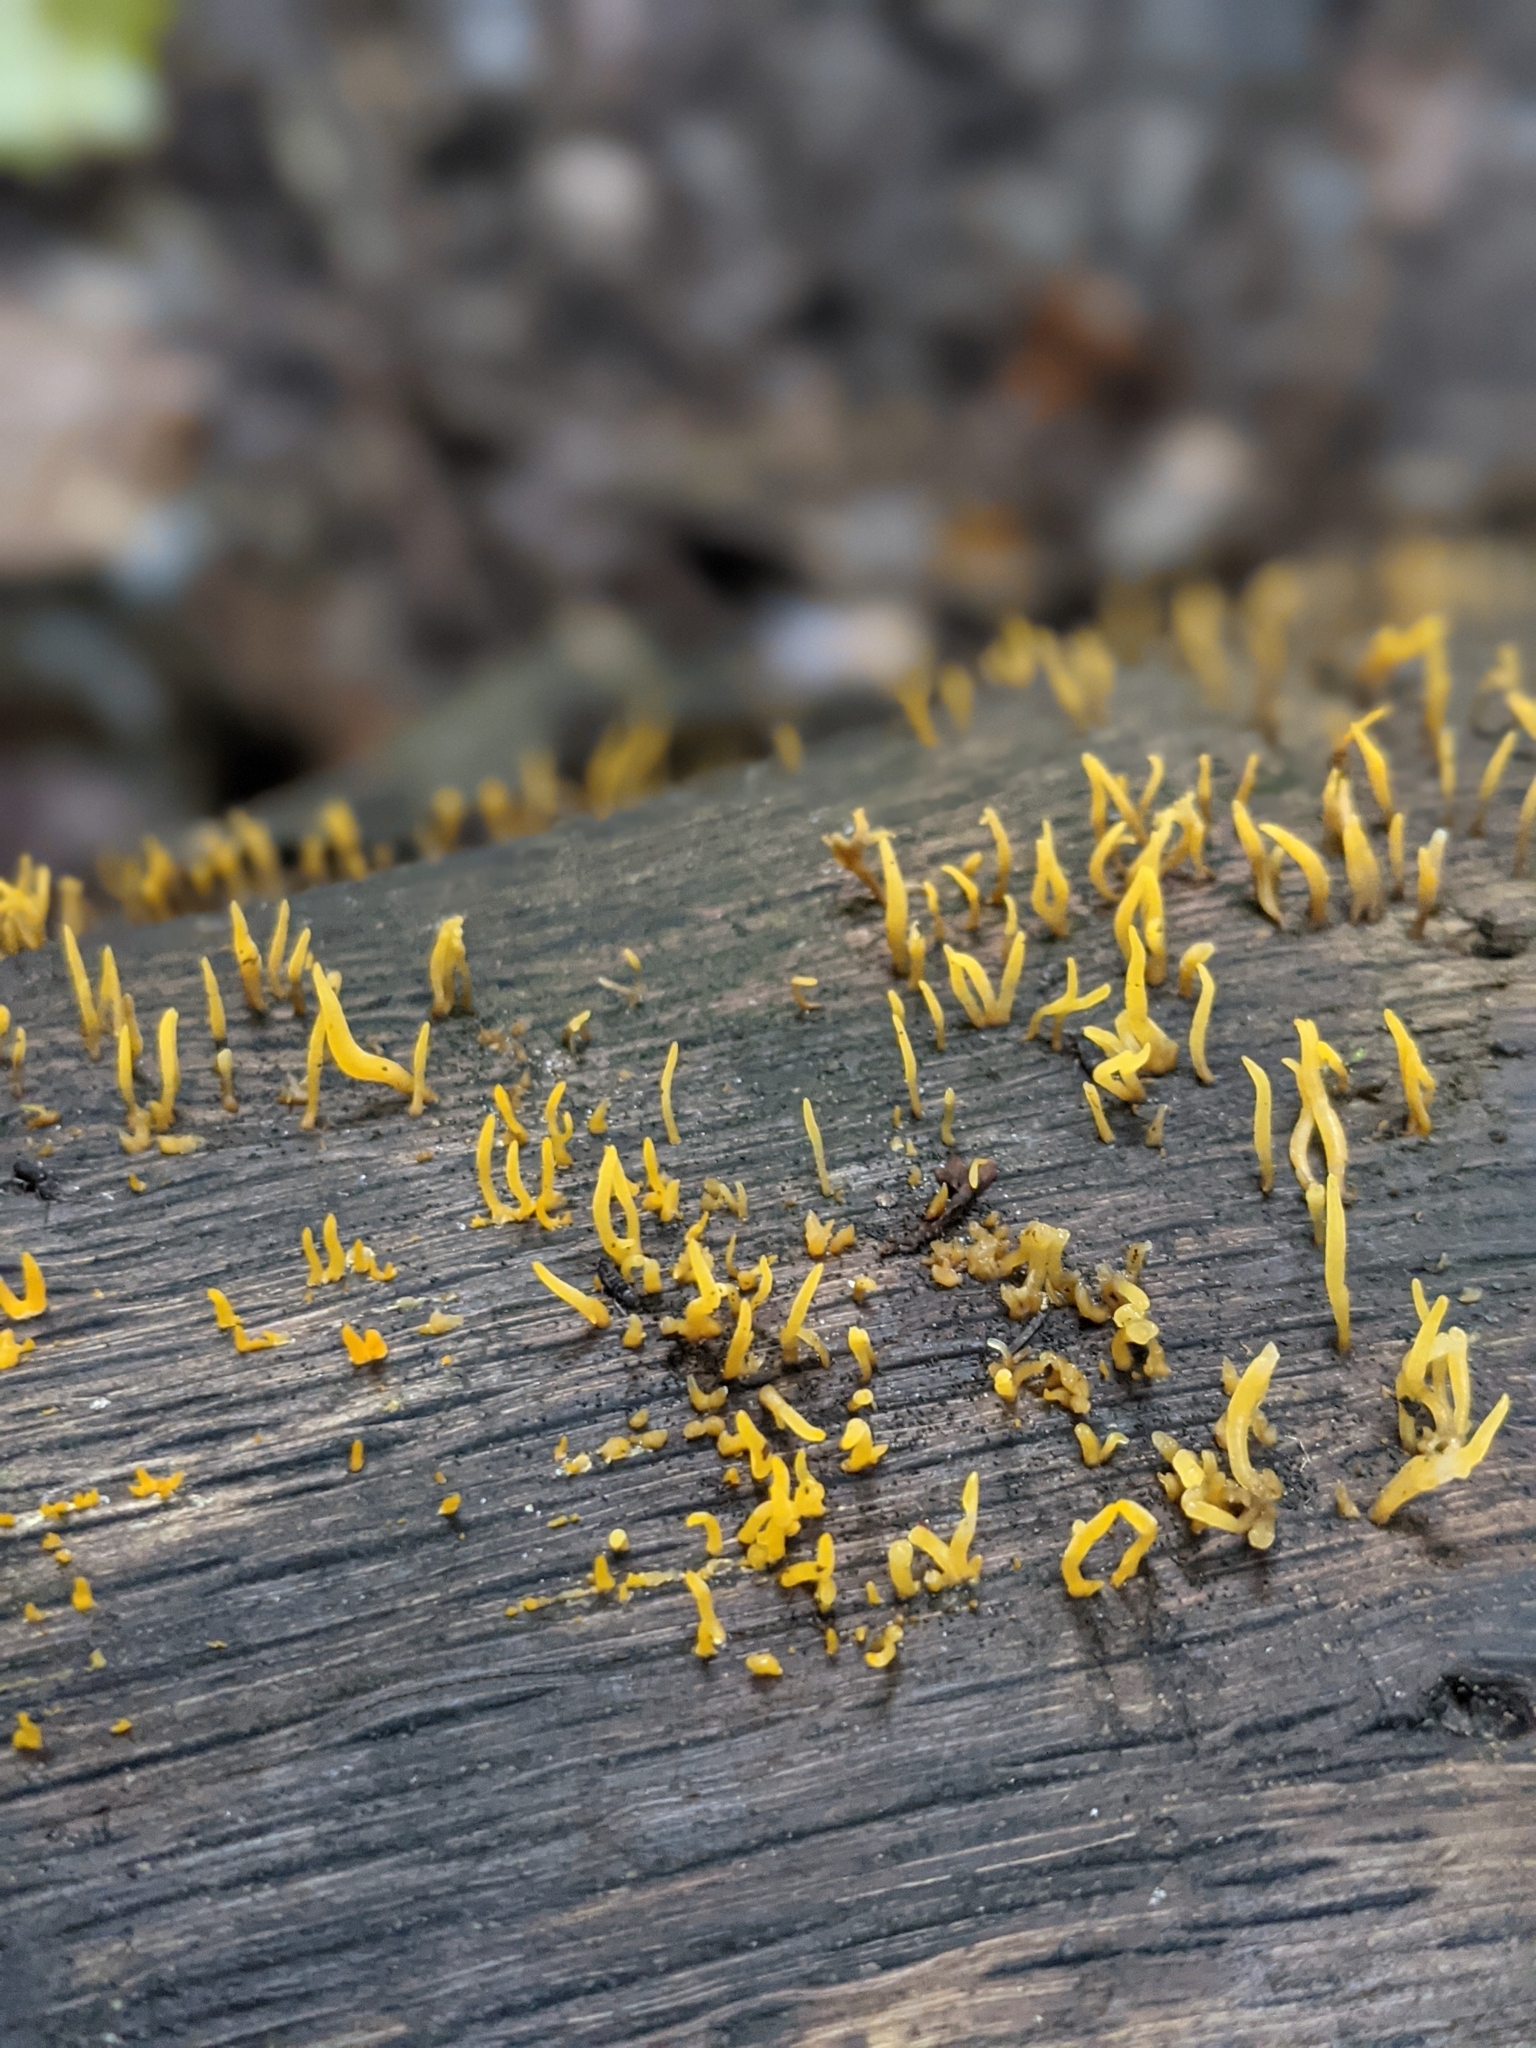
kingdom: Fungi
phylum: Basidiomycota
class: Dacrymycetes
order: Dacrymycetales
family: Dacrymycetaceae
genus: Calocera
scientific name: Calocera cornea
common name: Small stagshorn
